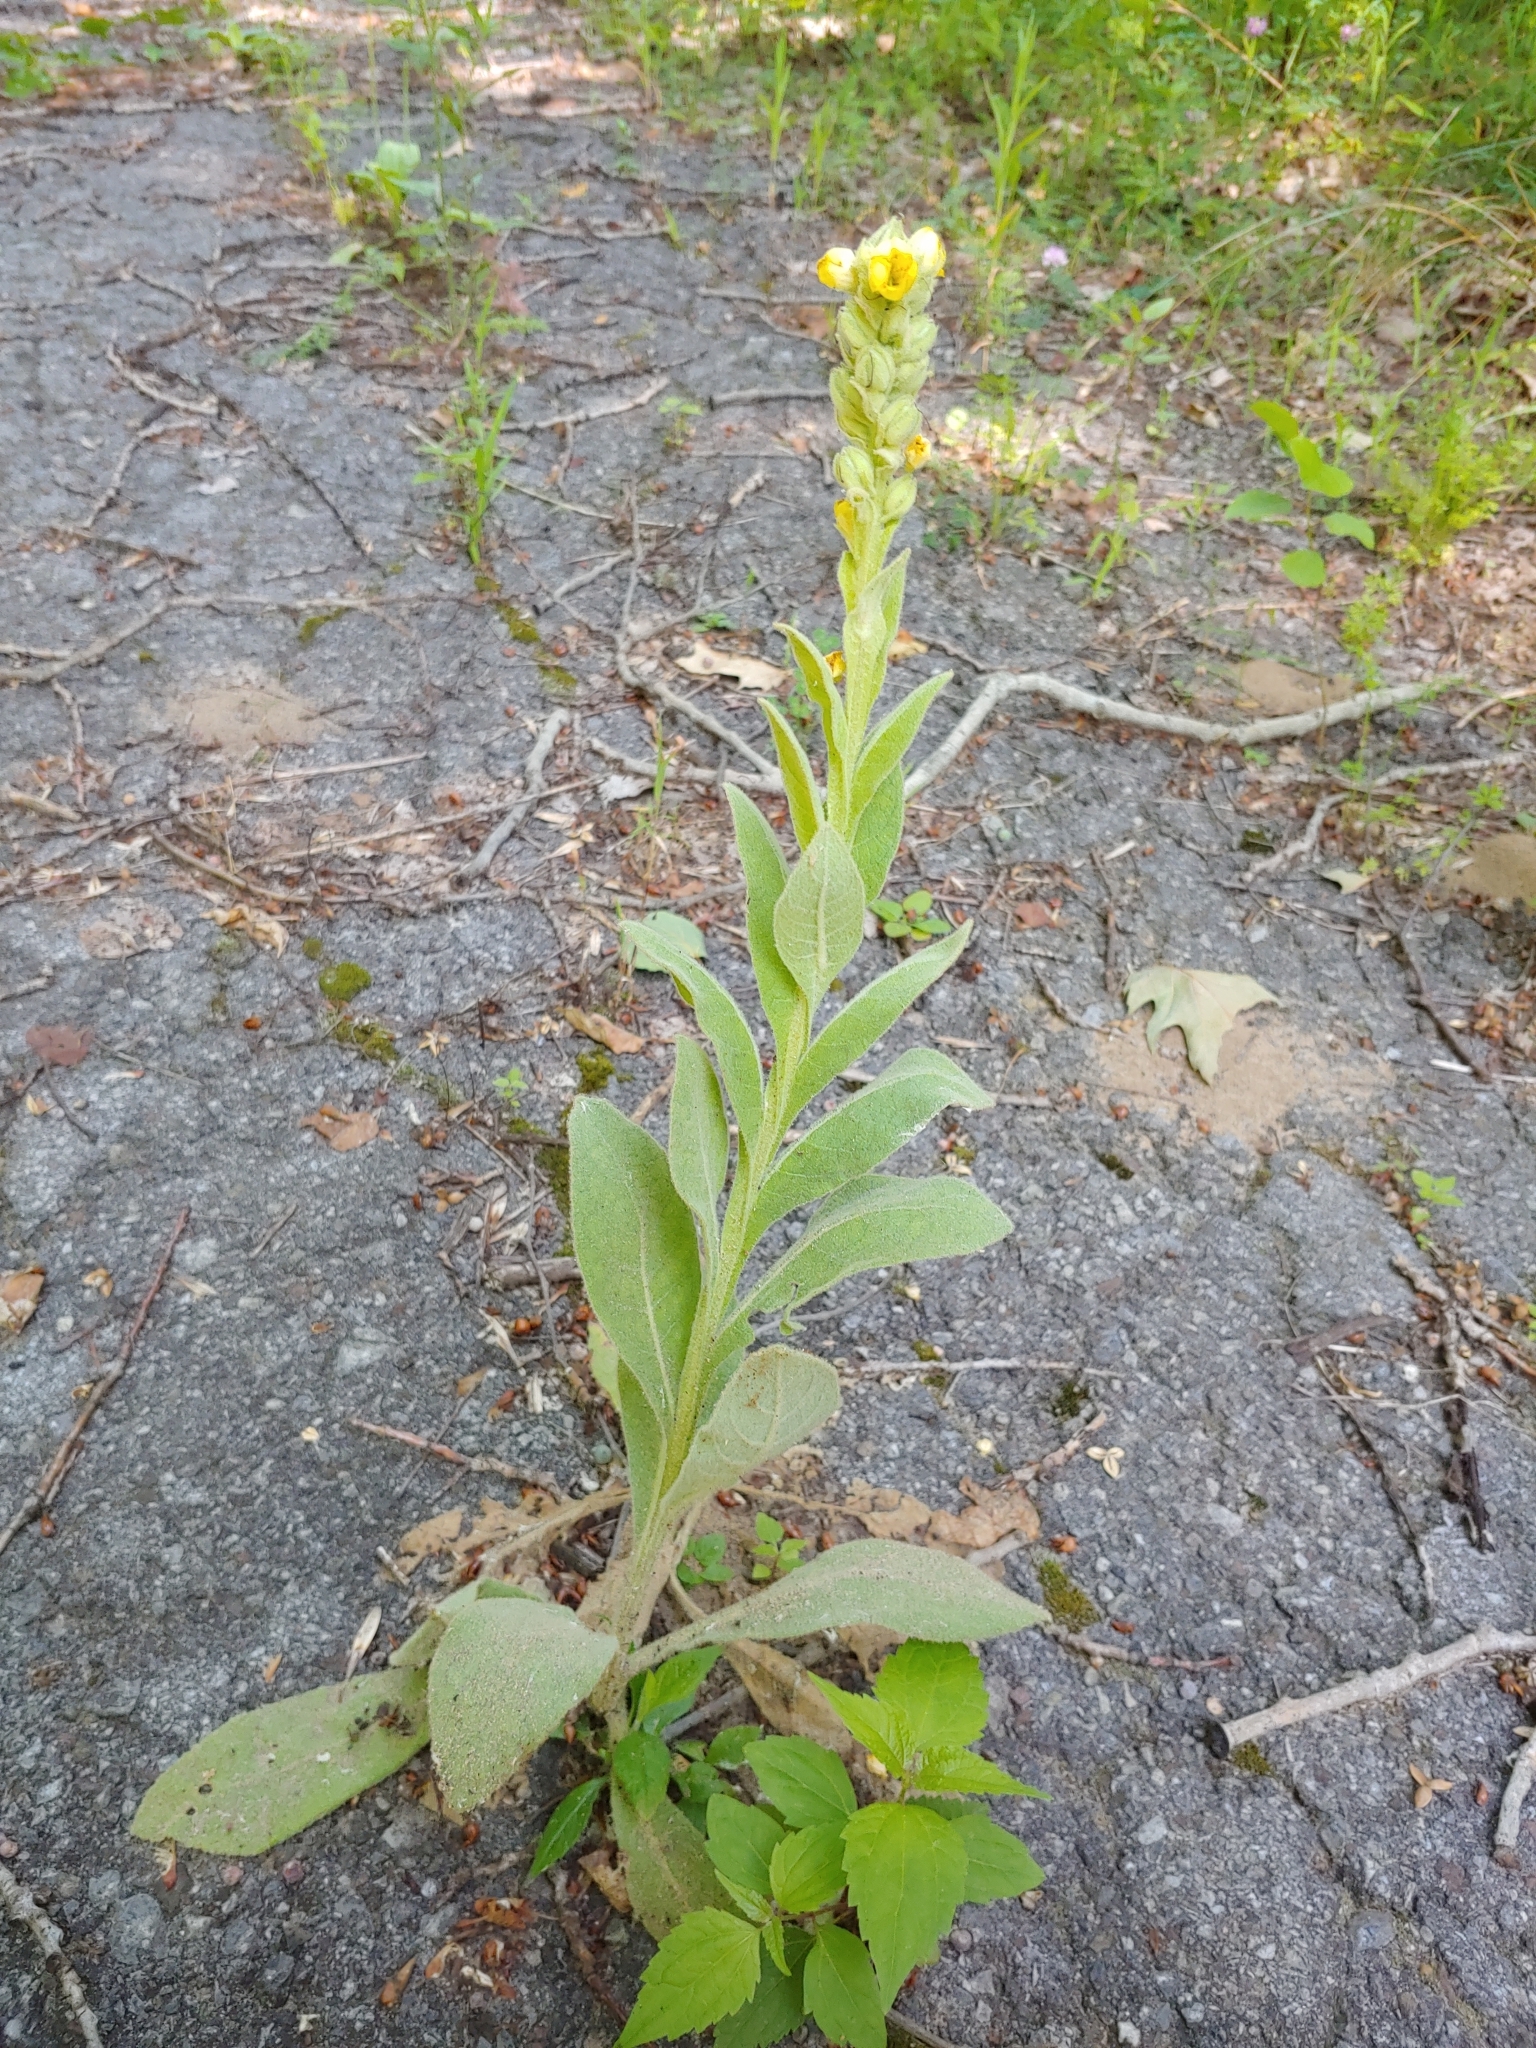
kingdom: Plantae
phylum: Tracheophyta
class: Magnoliopsida
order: Lamiales
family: Scrophulariaceae
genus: Verbascum
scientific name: Verbascum thapsus
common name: Common mullein
